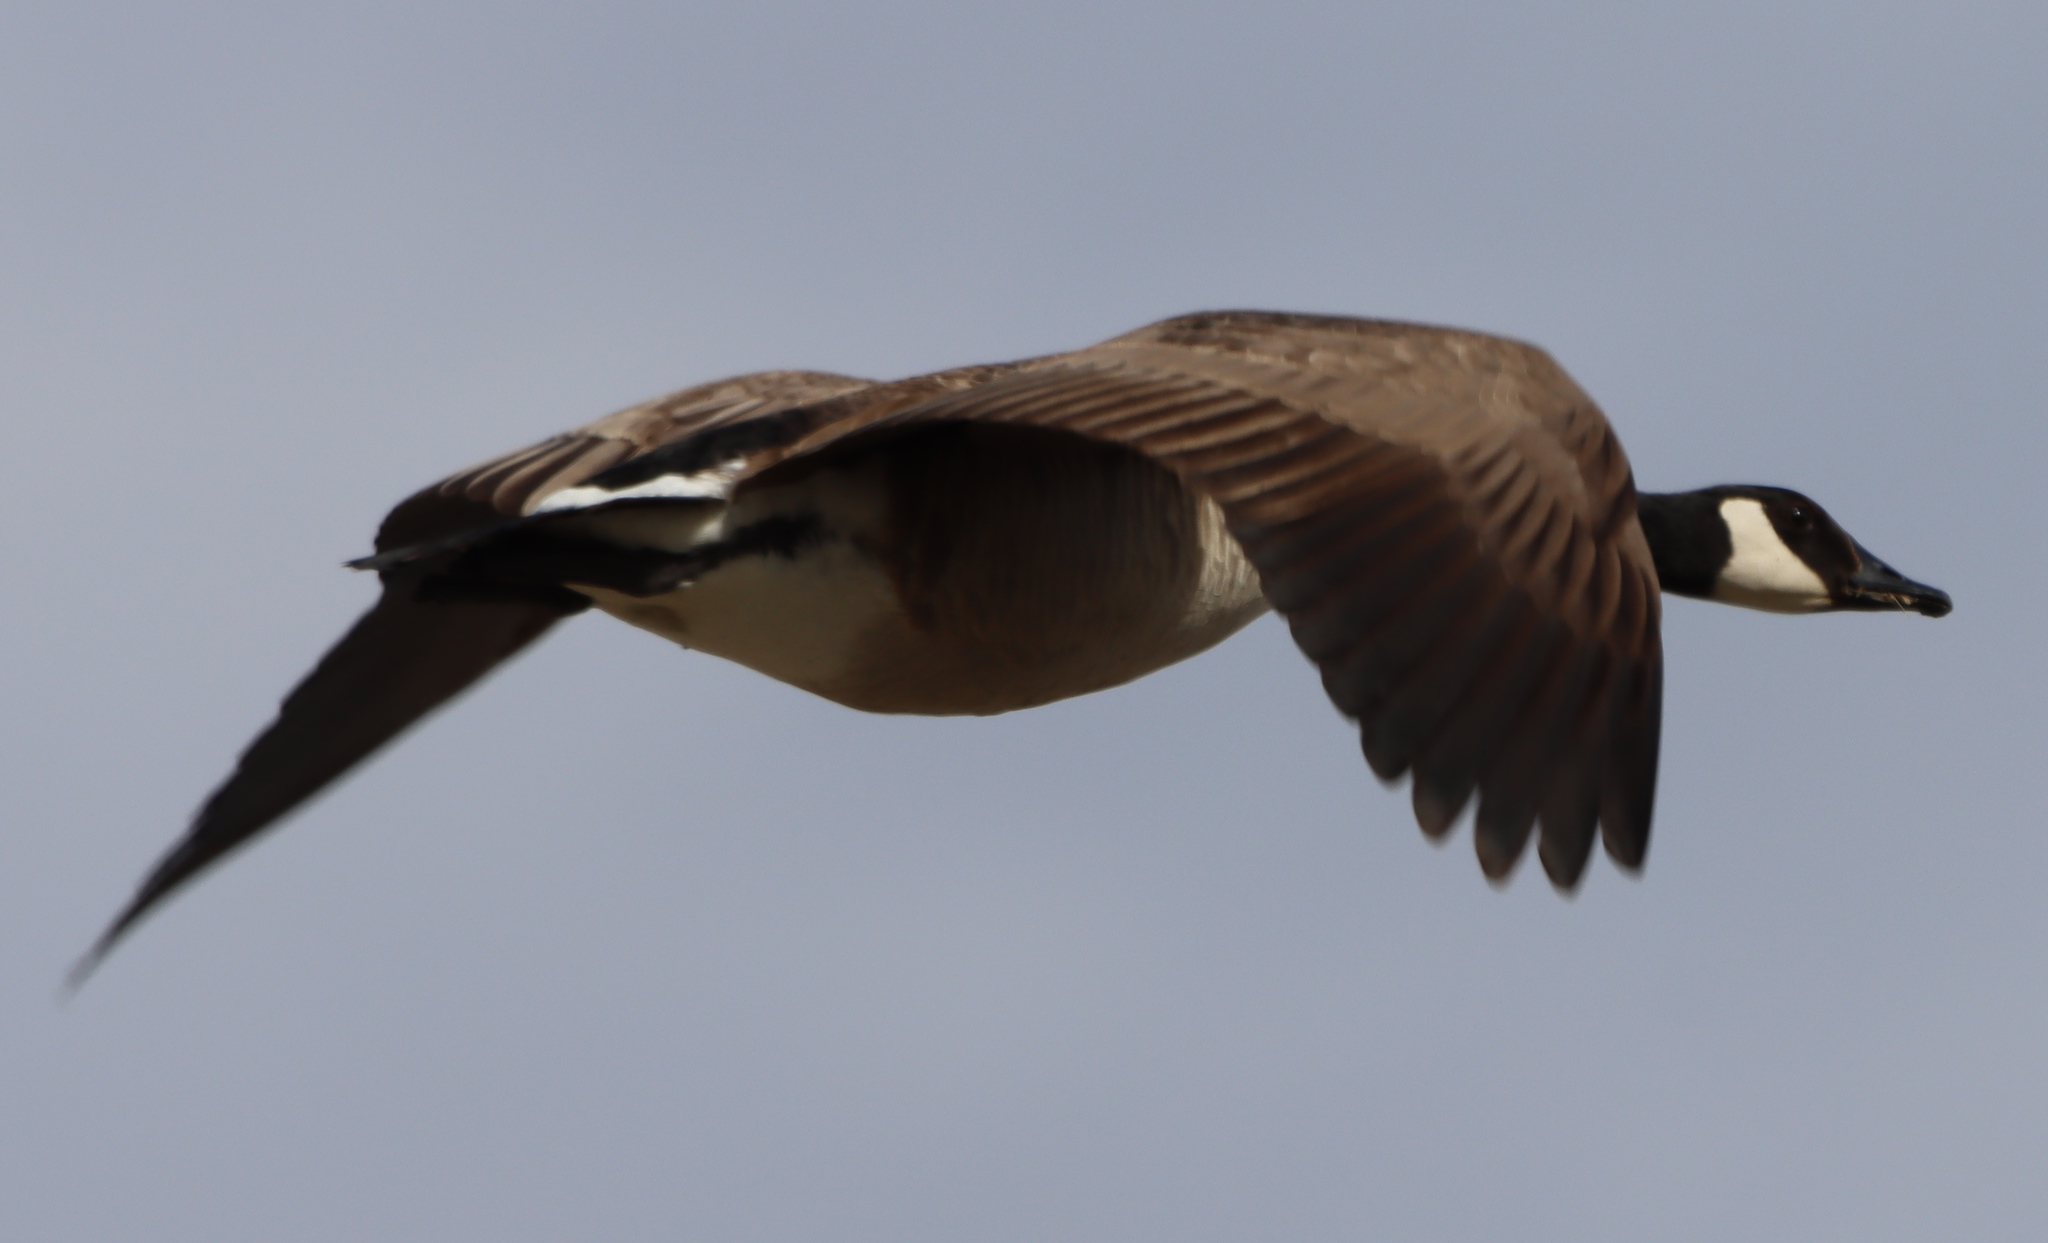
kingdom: Animalia
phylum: Chordata
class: Aves
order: Anseriformes
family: Anatidae
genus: Branta
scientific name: Branta canadensis
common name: Canada goose
